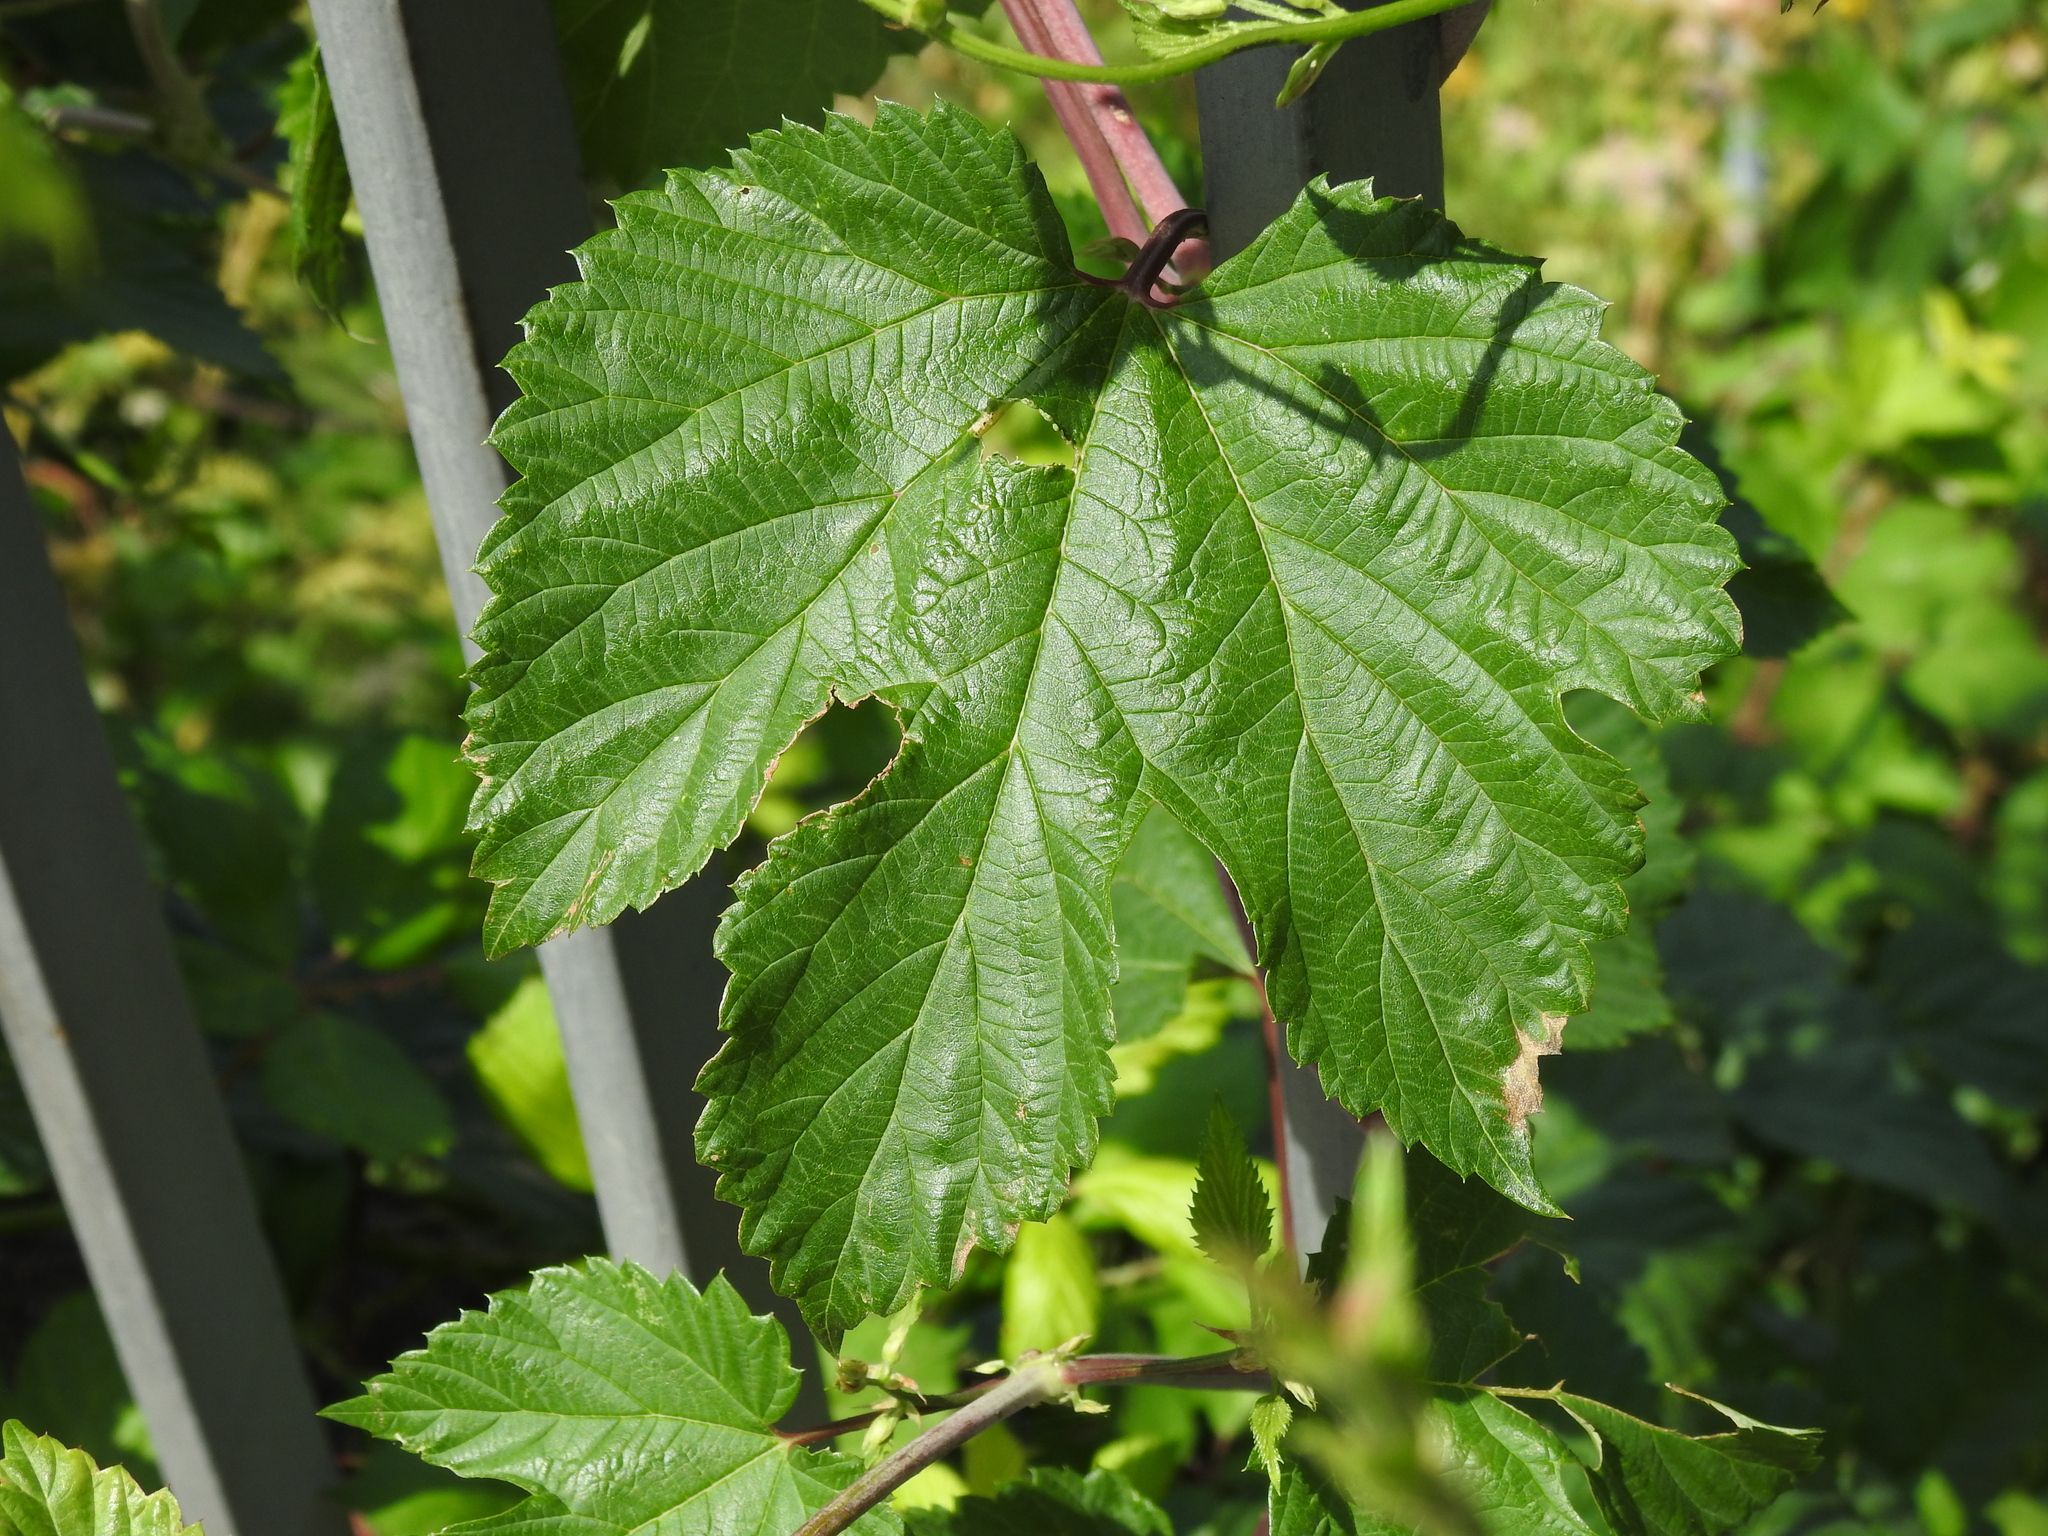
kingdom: Plantae
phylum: Tracheophyta
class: Magnoliopsida
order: Rosales
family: Cannabaceae
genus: Humulus
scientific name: Humulus lupulus
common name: Hop
